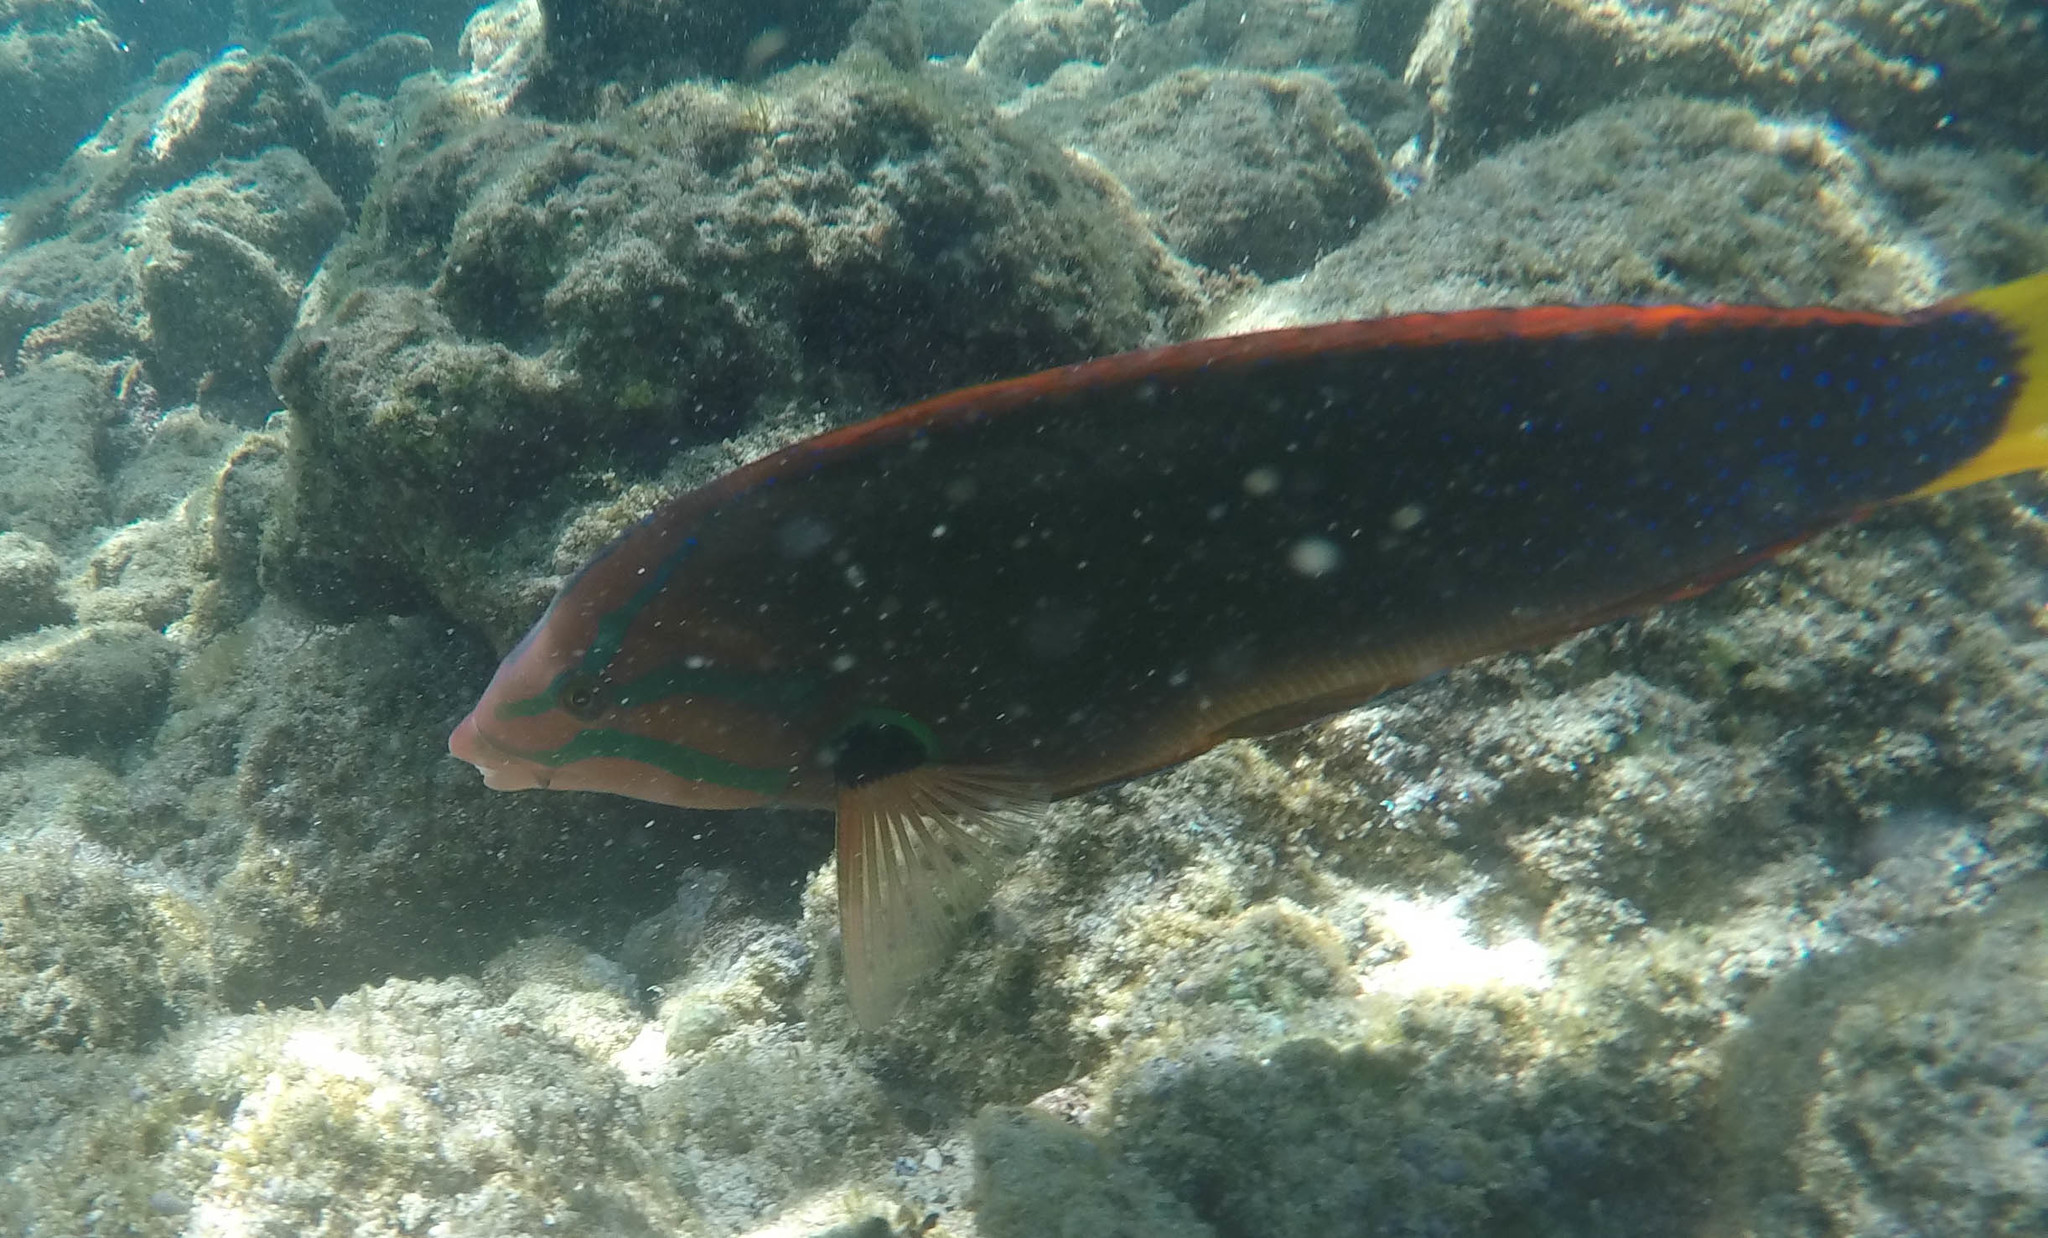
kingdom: Animalia
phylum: Chordata
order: Perciformes
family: Labridae
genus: Coris
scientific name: Coris gaimard
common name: Yellowtail coris
